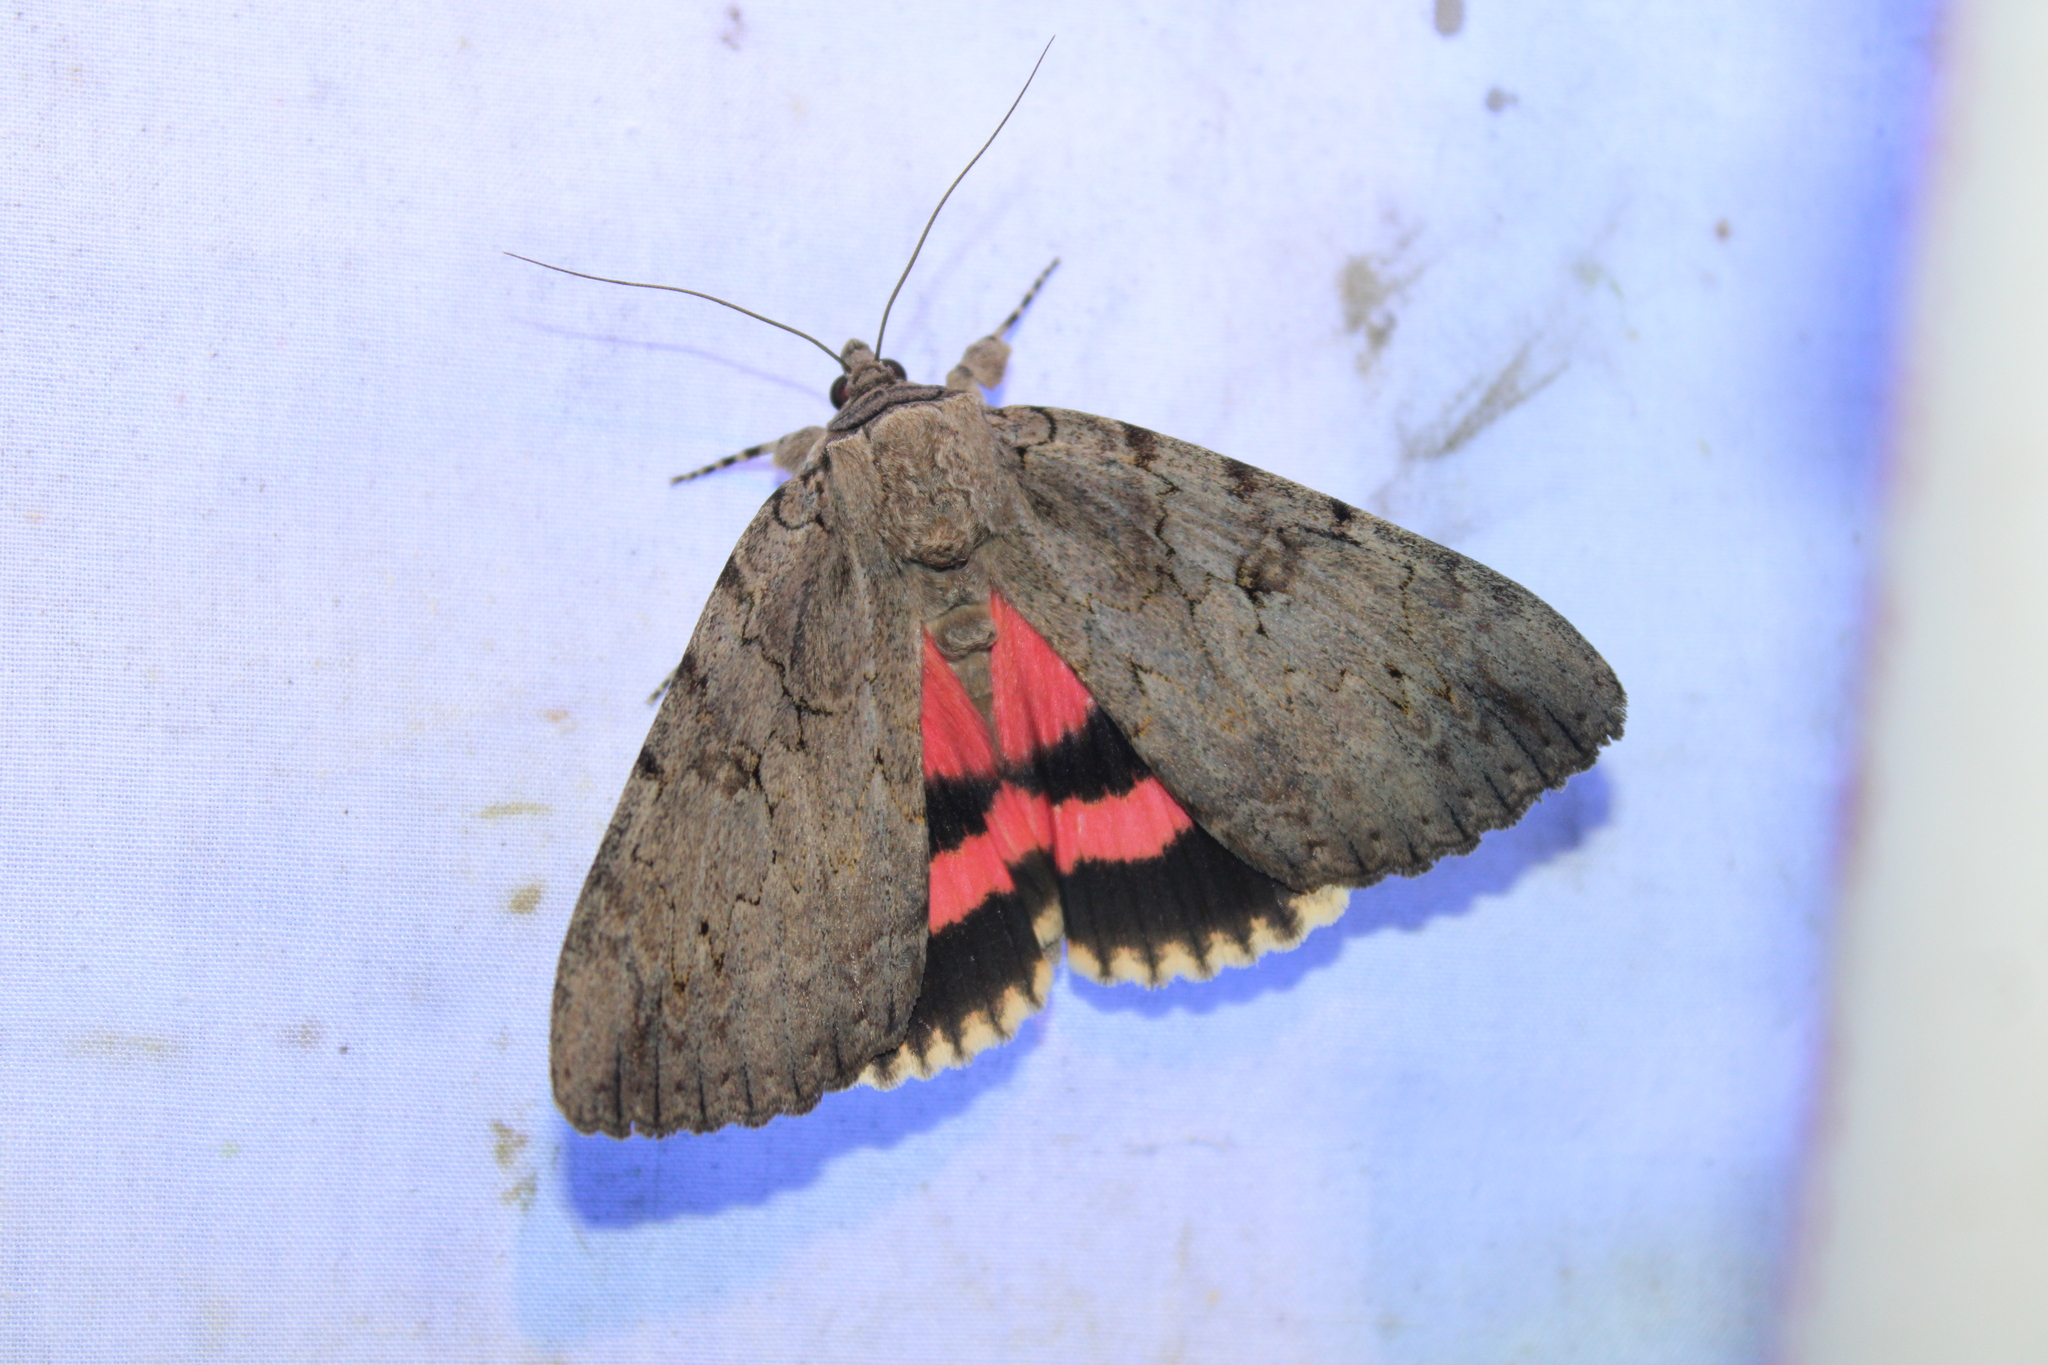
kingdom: Animalia
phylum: Arthropoda
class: Insecta
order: Lepidoptera
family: Erebidae
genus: Catocala
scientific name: Catocala amatrix
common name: Sweetheart underwing
